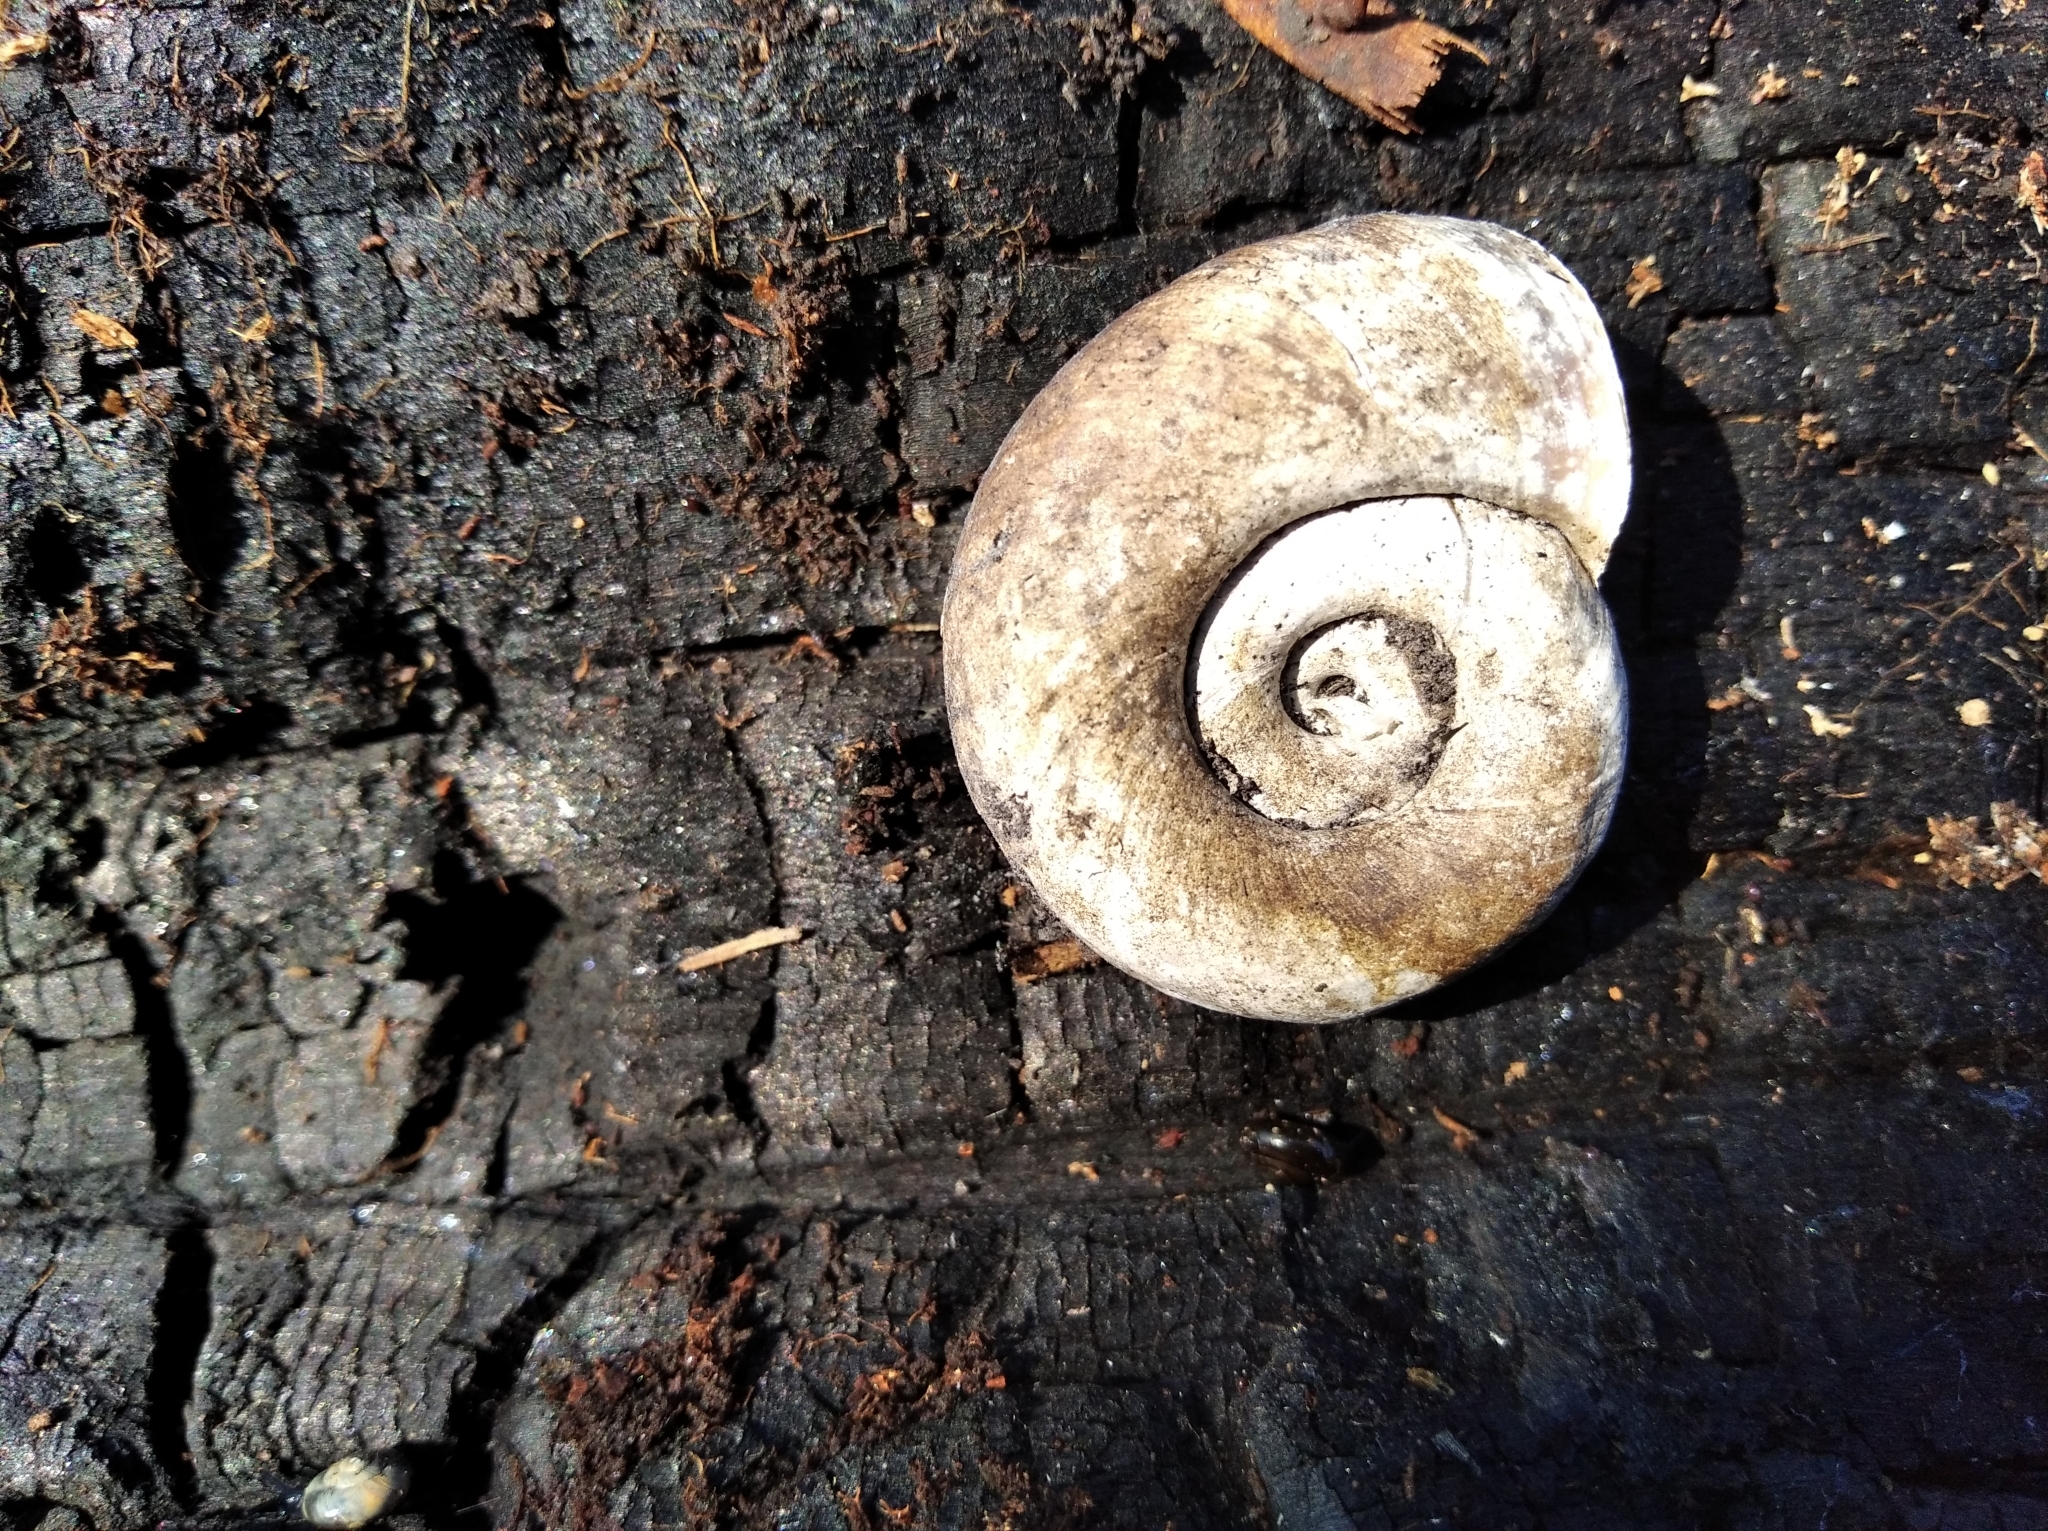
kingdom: Animalia
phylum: Mollusca
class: Gastropoda
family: Planorbidae
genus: Planorbarius
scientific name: Planorbarius corneus
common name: Great ramshorn
